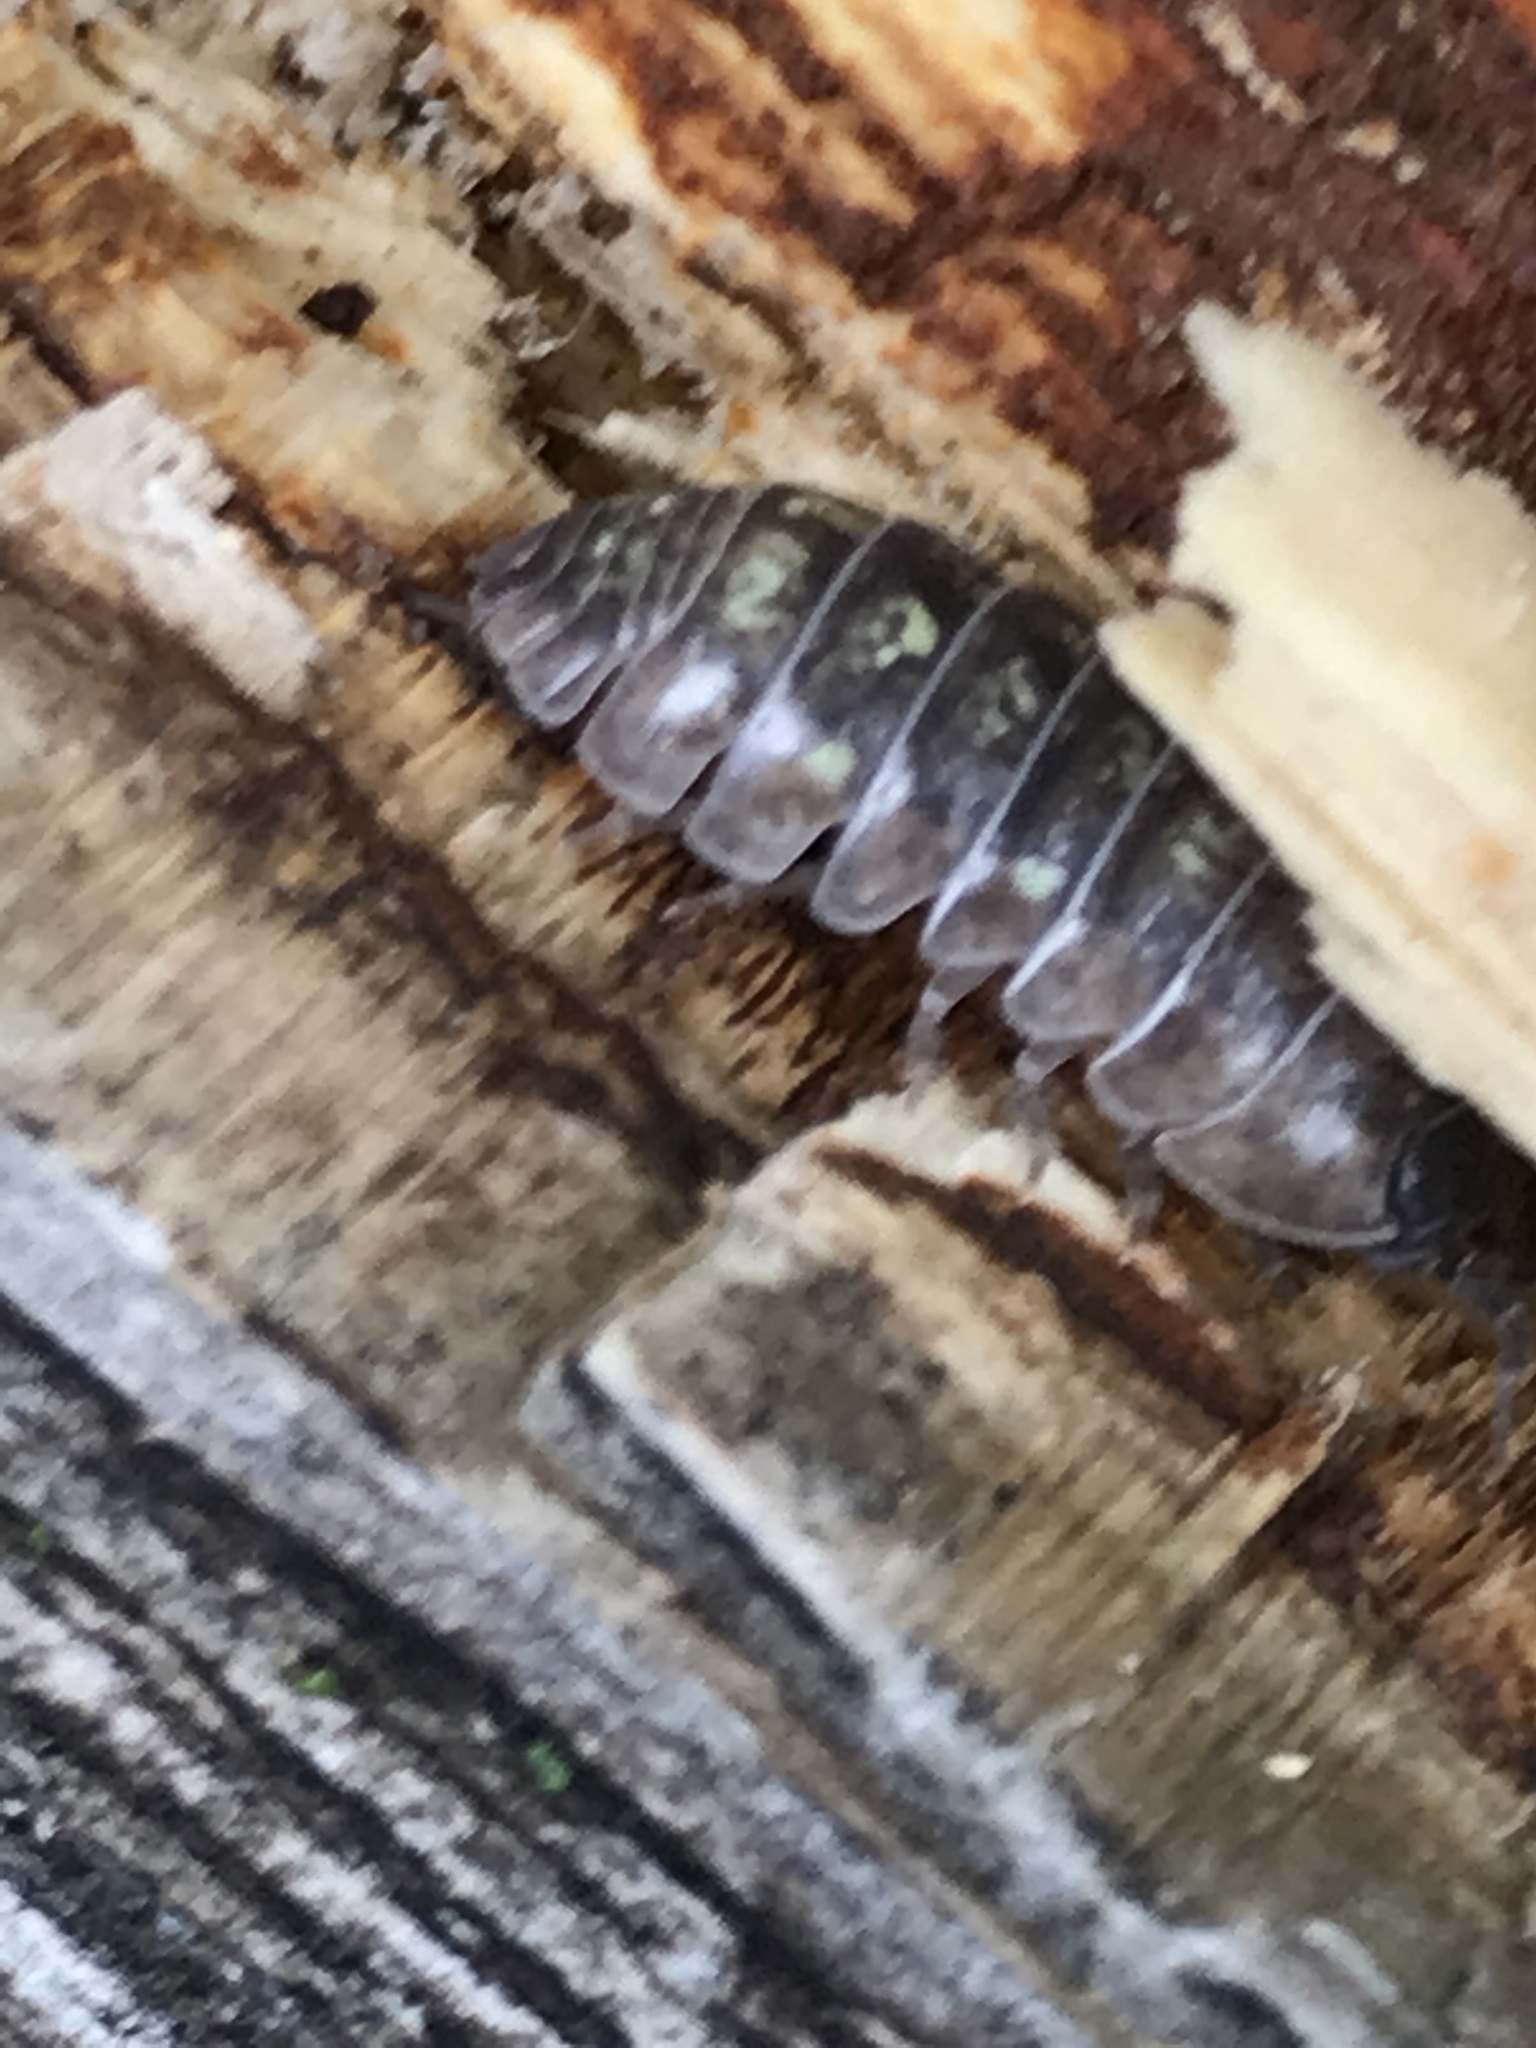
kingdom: Animalia
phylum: Arthropoda
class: Malacostraca
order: Isopoda
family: Armadillidiidae
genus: Armadillidium
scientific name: Armadillidium vulgare
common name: Common pill woodlouse
